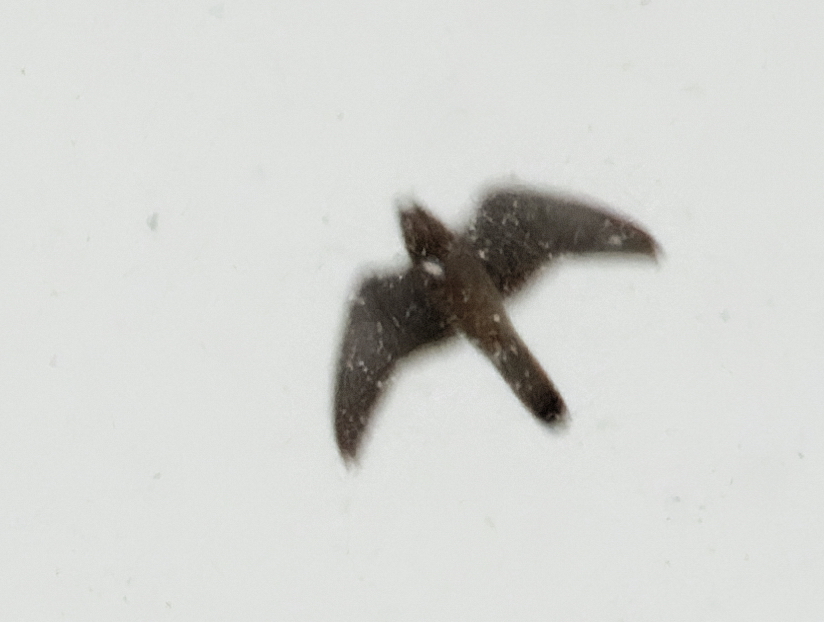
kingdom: Animalia
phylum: Chordata
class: Aves
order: Falconiformes
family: Falconidae
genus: Falco
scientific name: Falco columbarius
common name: Merlin
